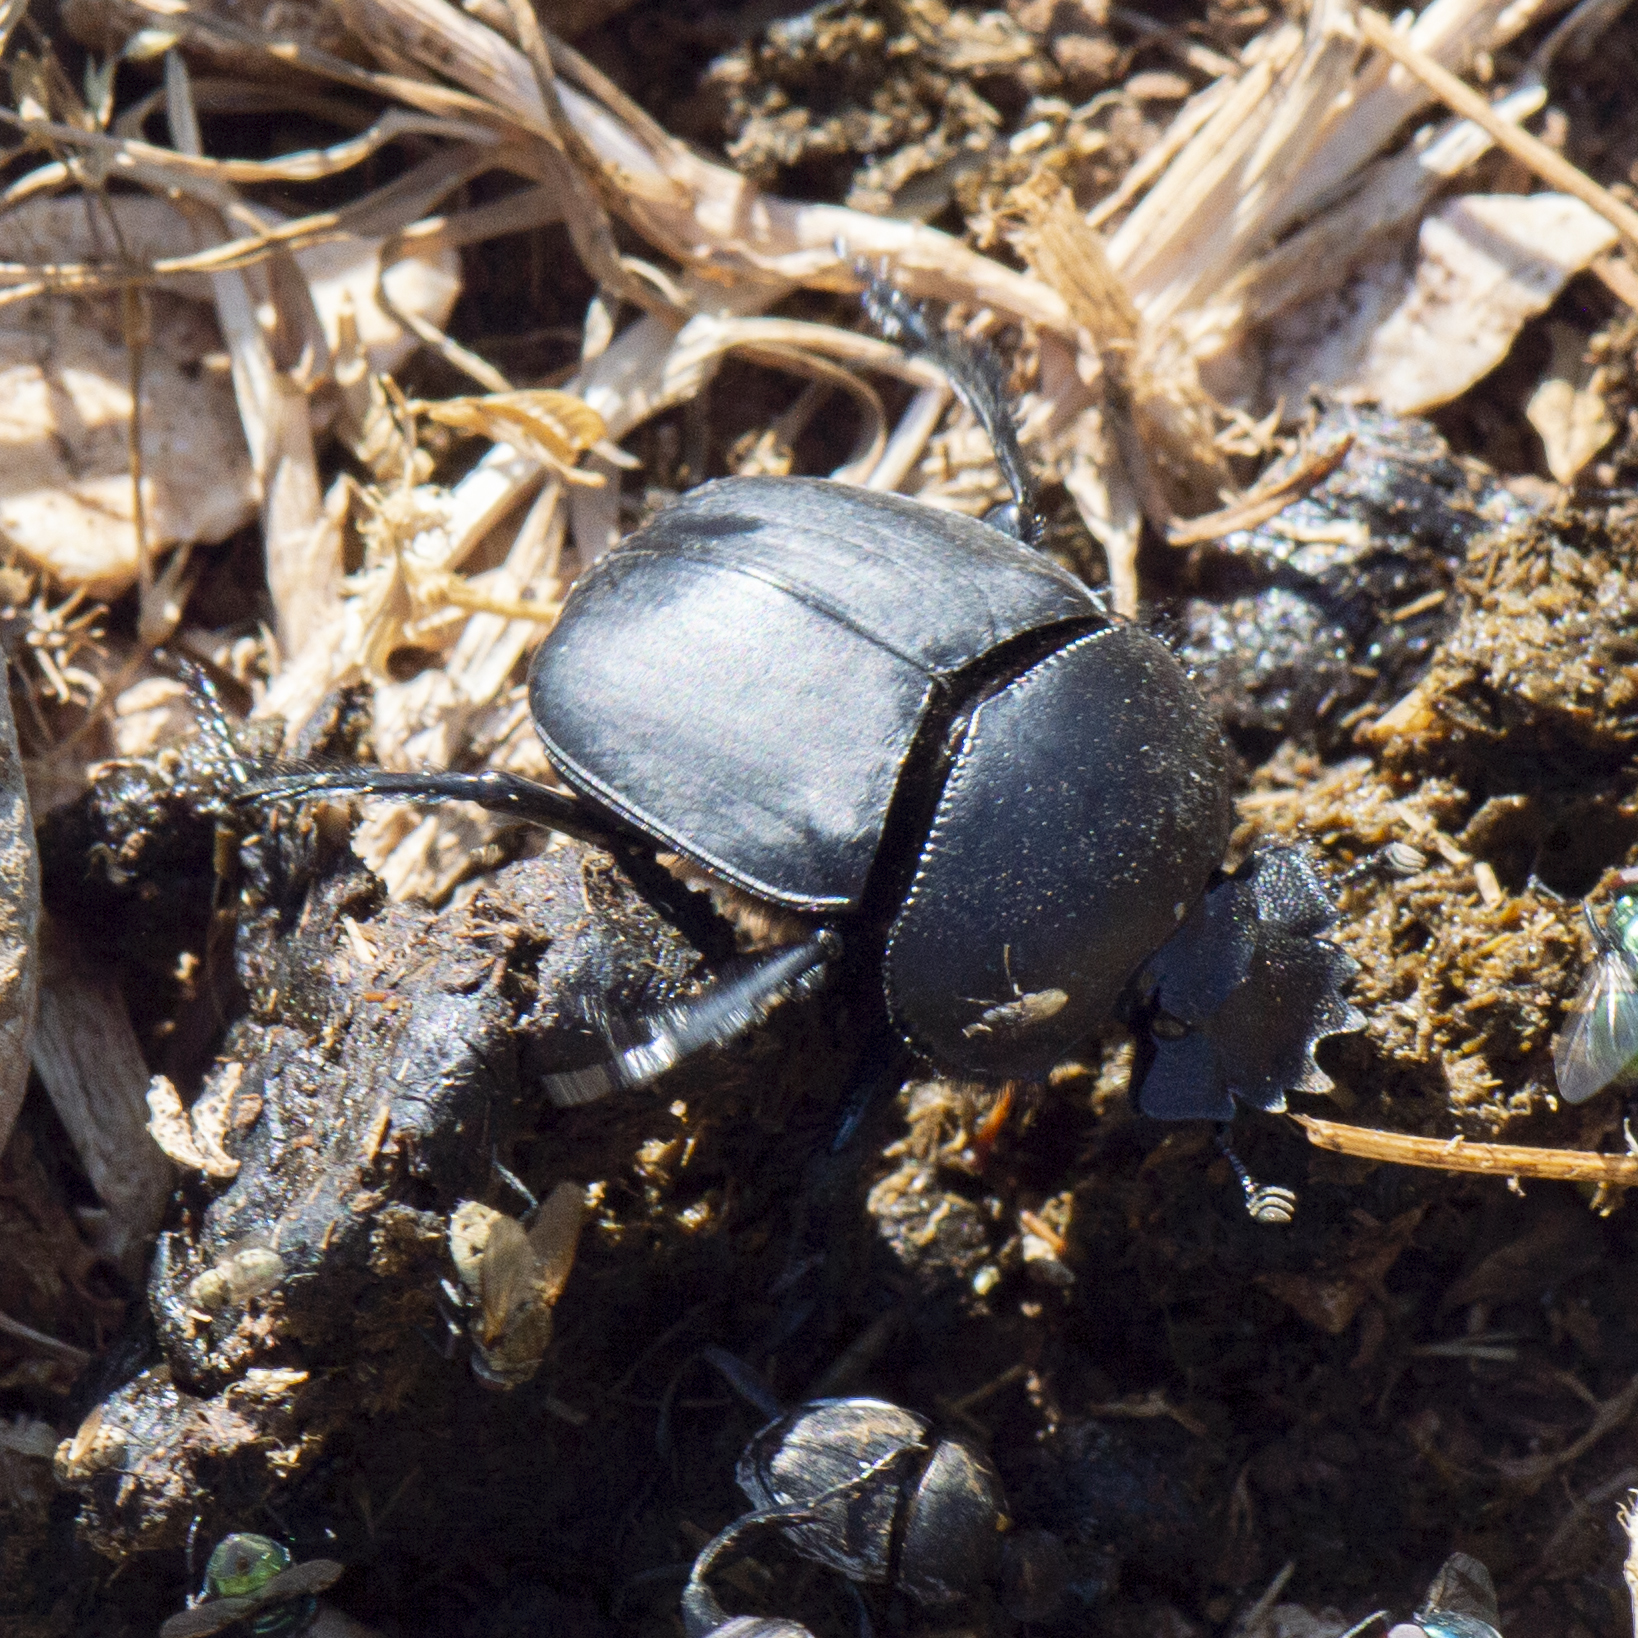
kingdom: Animalia
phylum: Arthropoda
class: Insecta
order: Coleoptera
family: Scarabaeidae
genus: Scarabaeus
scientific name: Scarabaeus pius
